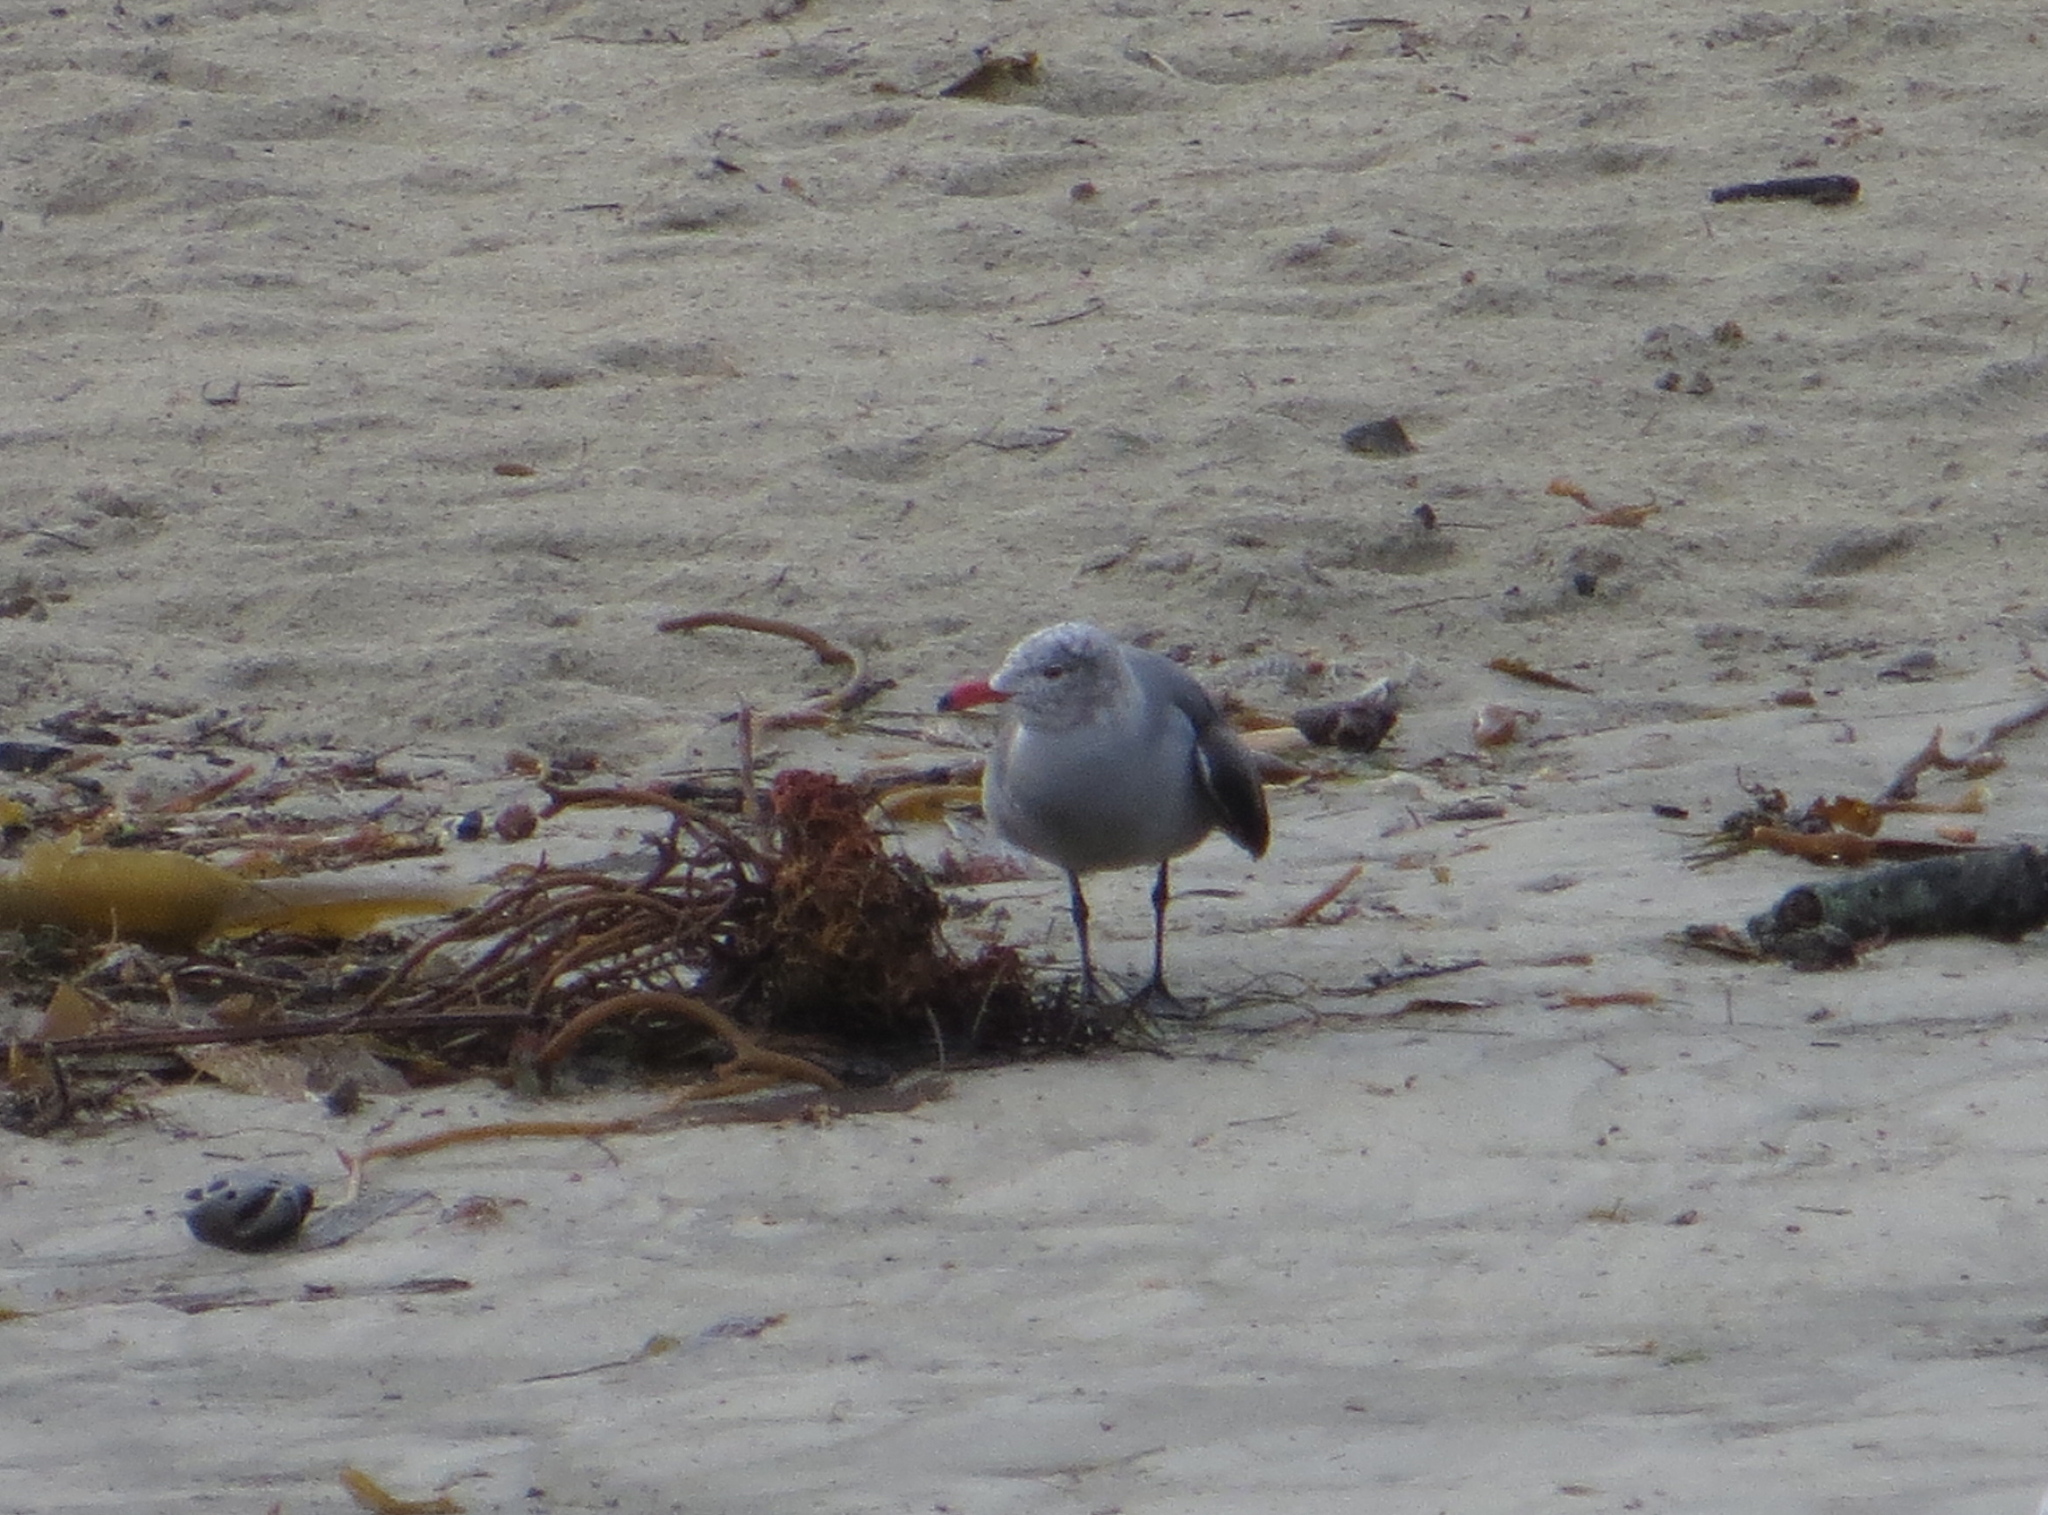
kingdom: Animalia
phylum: Chordata
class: Aves
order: Charadriiformes
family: Laridae
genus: Larus
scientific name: Larus heermanni
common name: Heermann's gull
